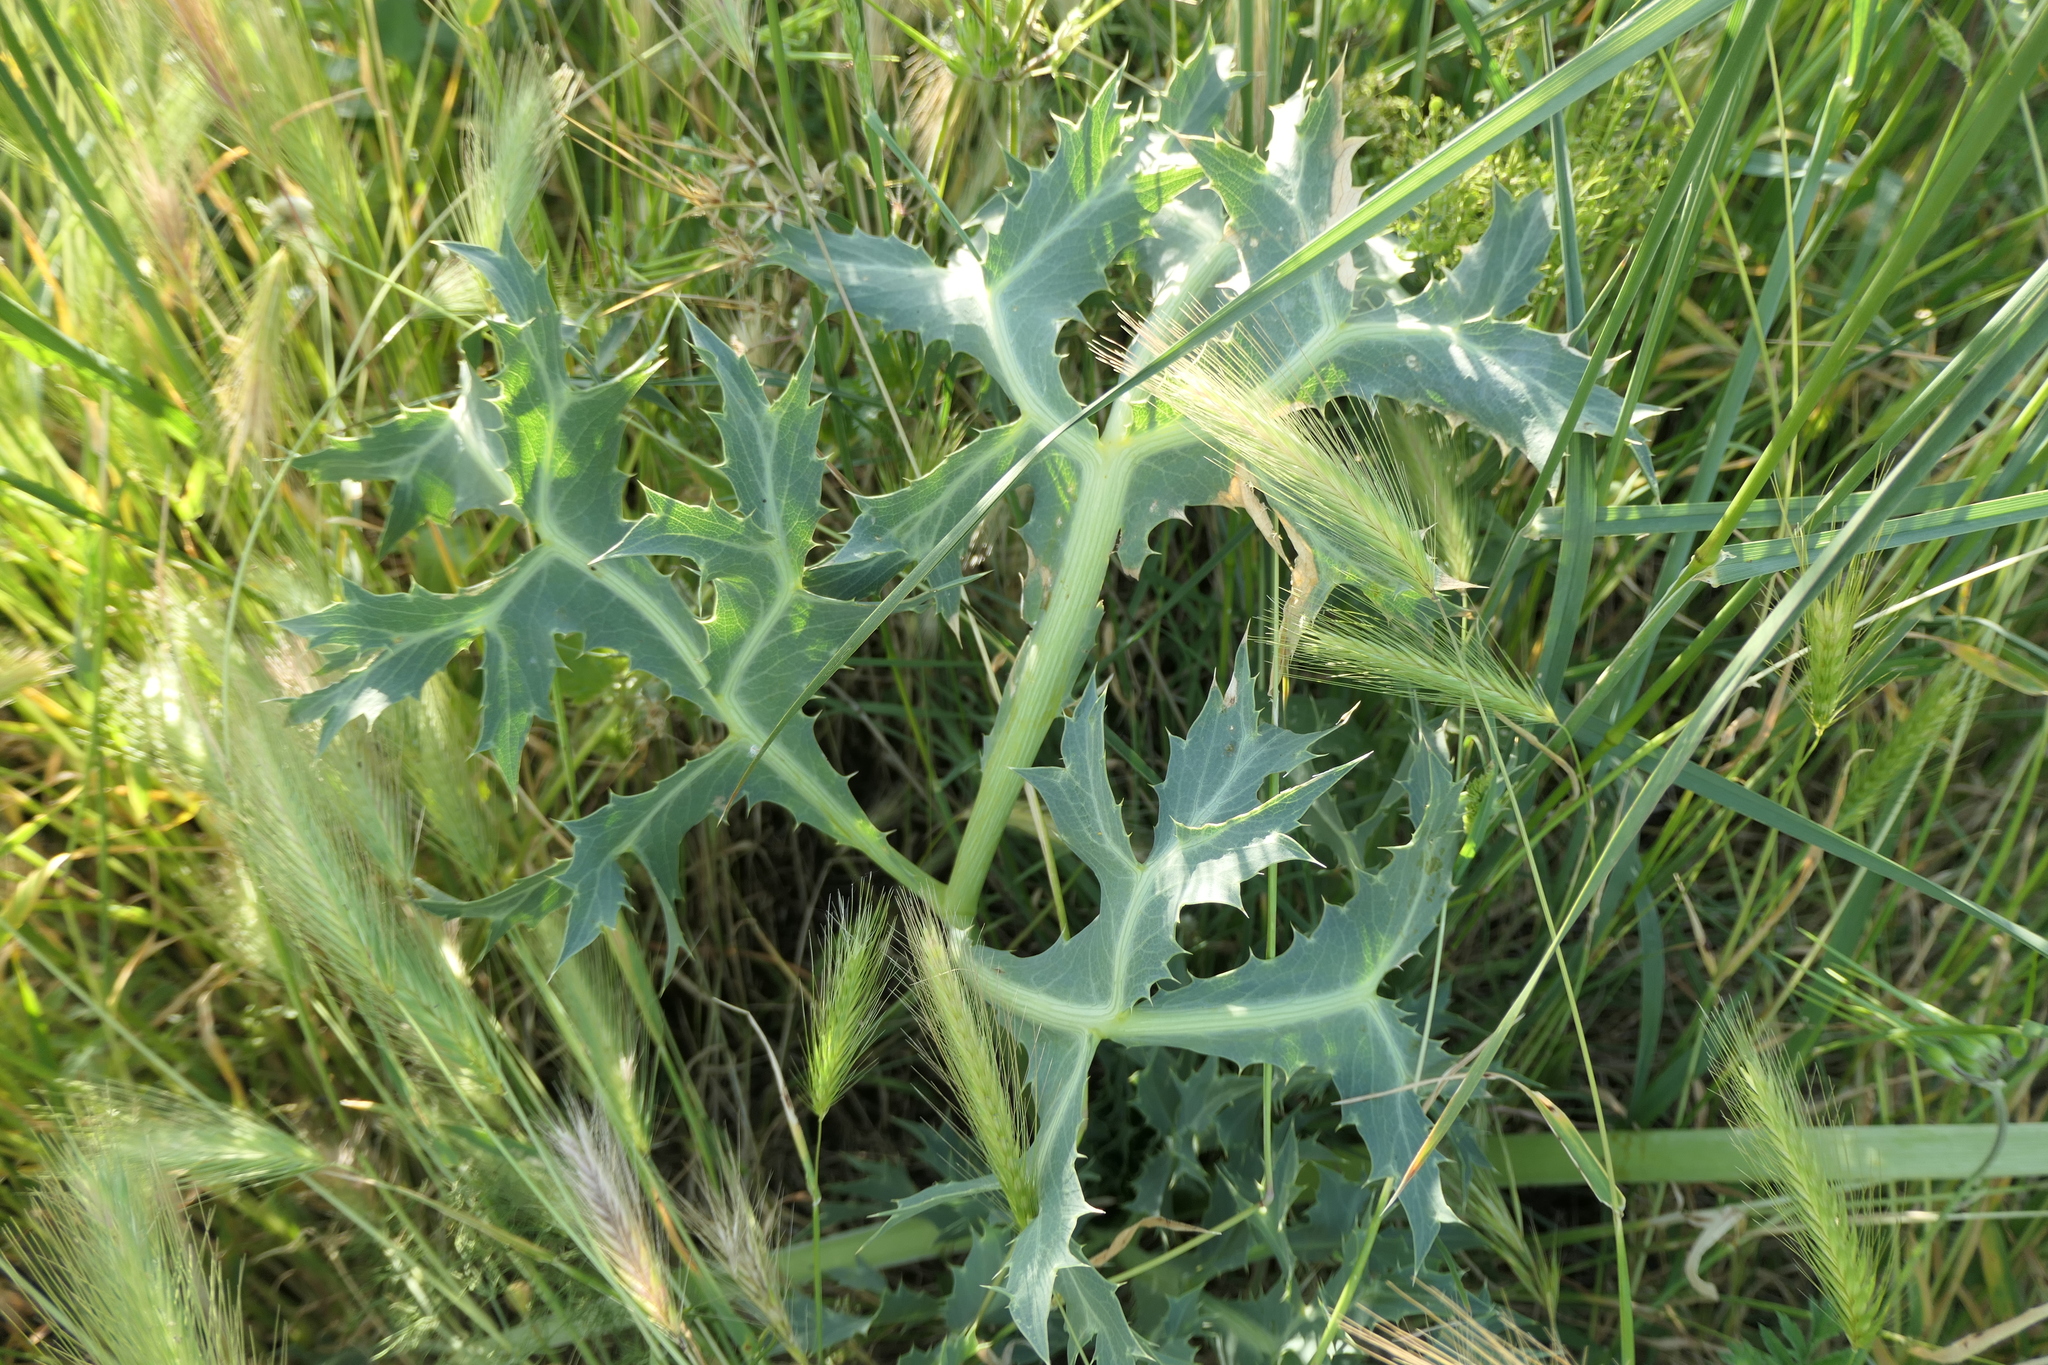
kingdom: Plantae
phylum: Tracheophyta
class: Magnoliopsida
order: Apiales
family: Apiaceae
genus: Eryngium
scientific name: Eryngium campestre
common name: Field eryngo
